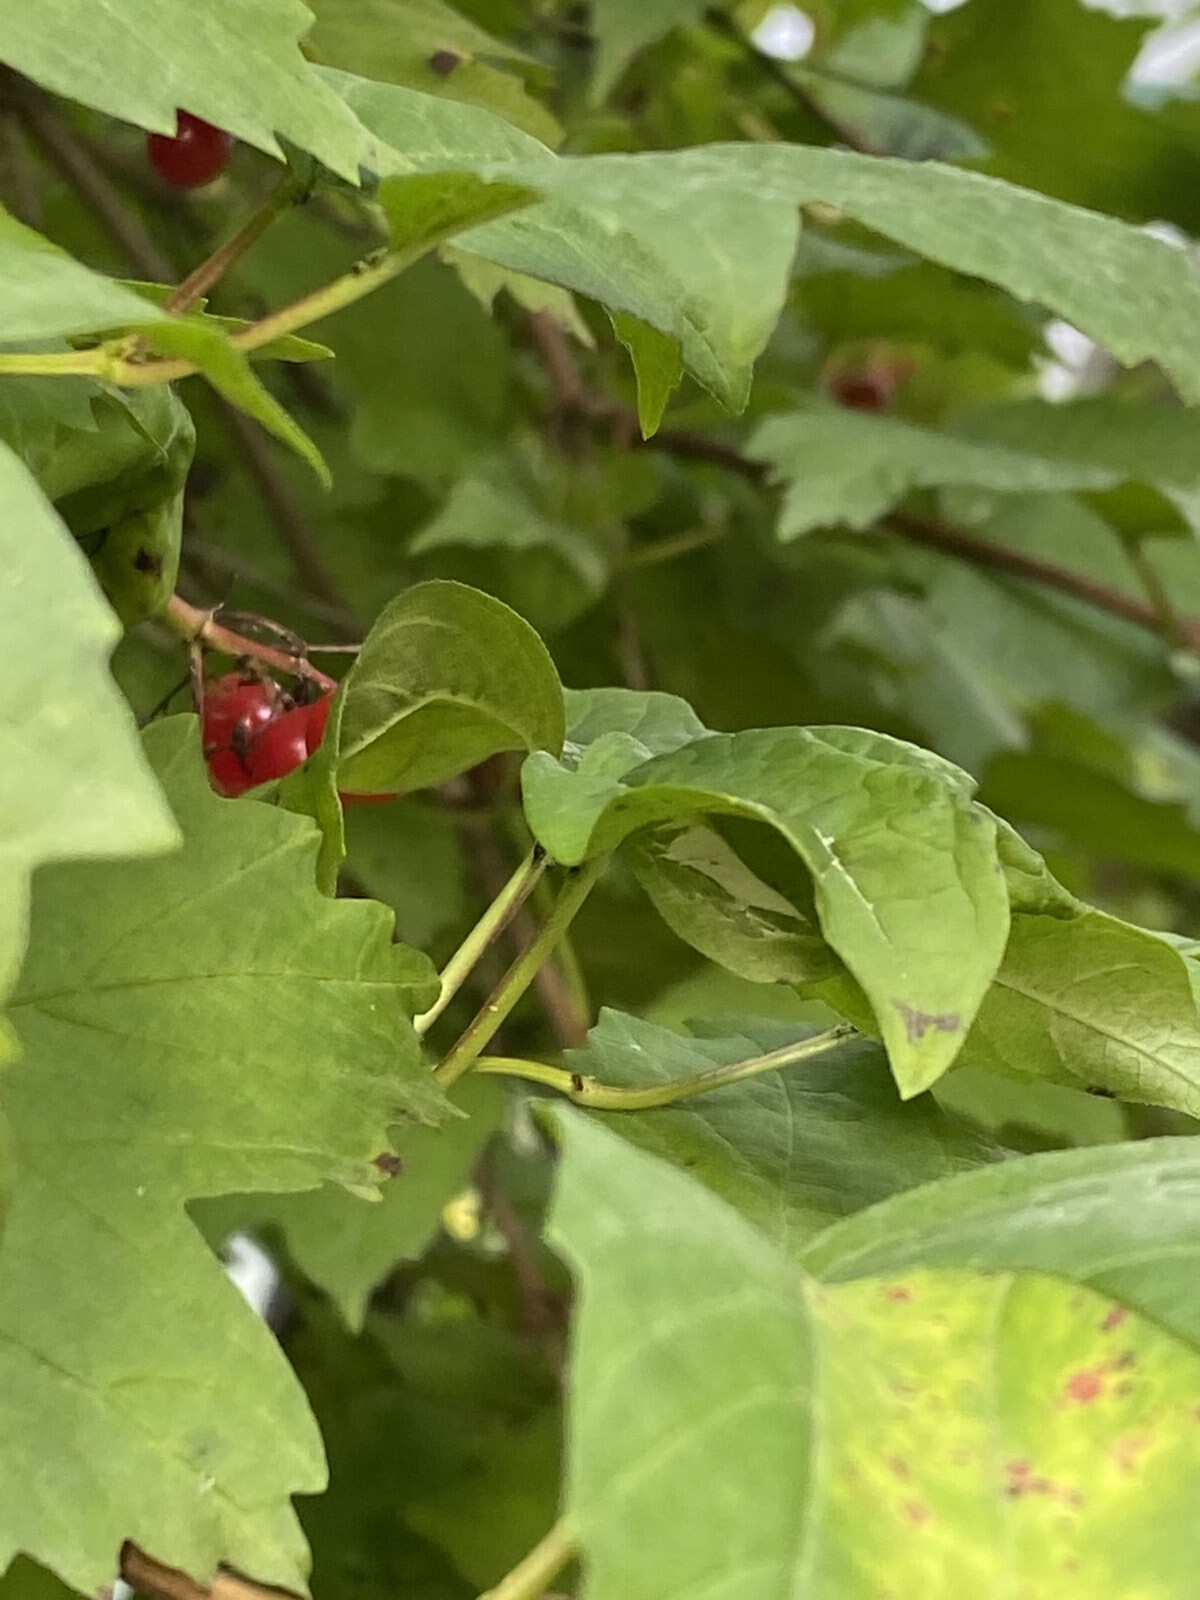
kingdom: Plantae
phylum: Tracheophyta
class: Magnoliopsida
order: Dipsacales
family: Viburnaceae
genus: Viburnum
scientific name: Viburnum opulus
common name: Guelder-rose
